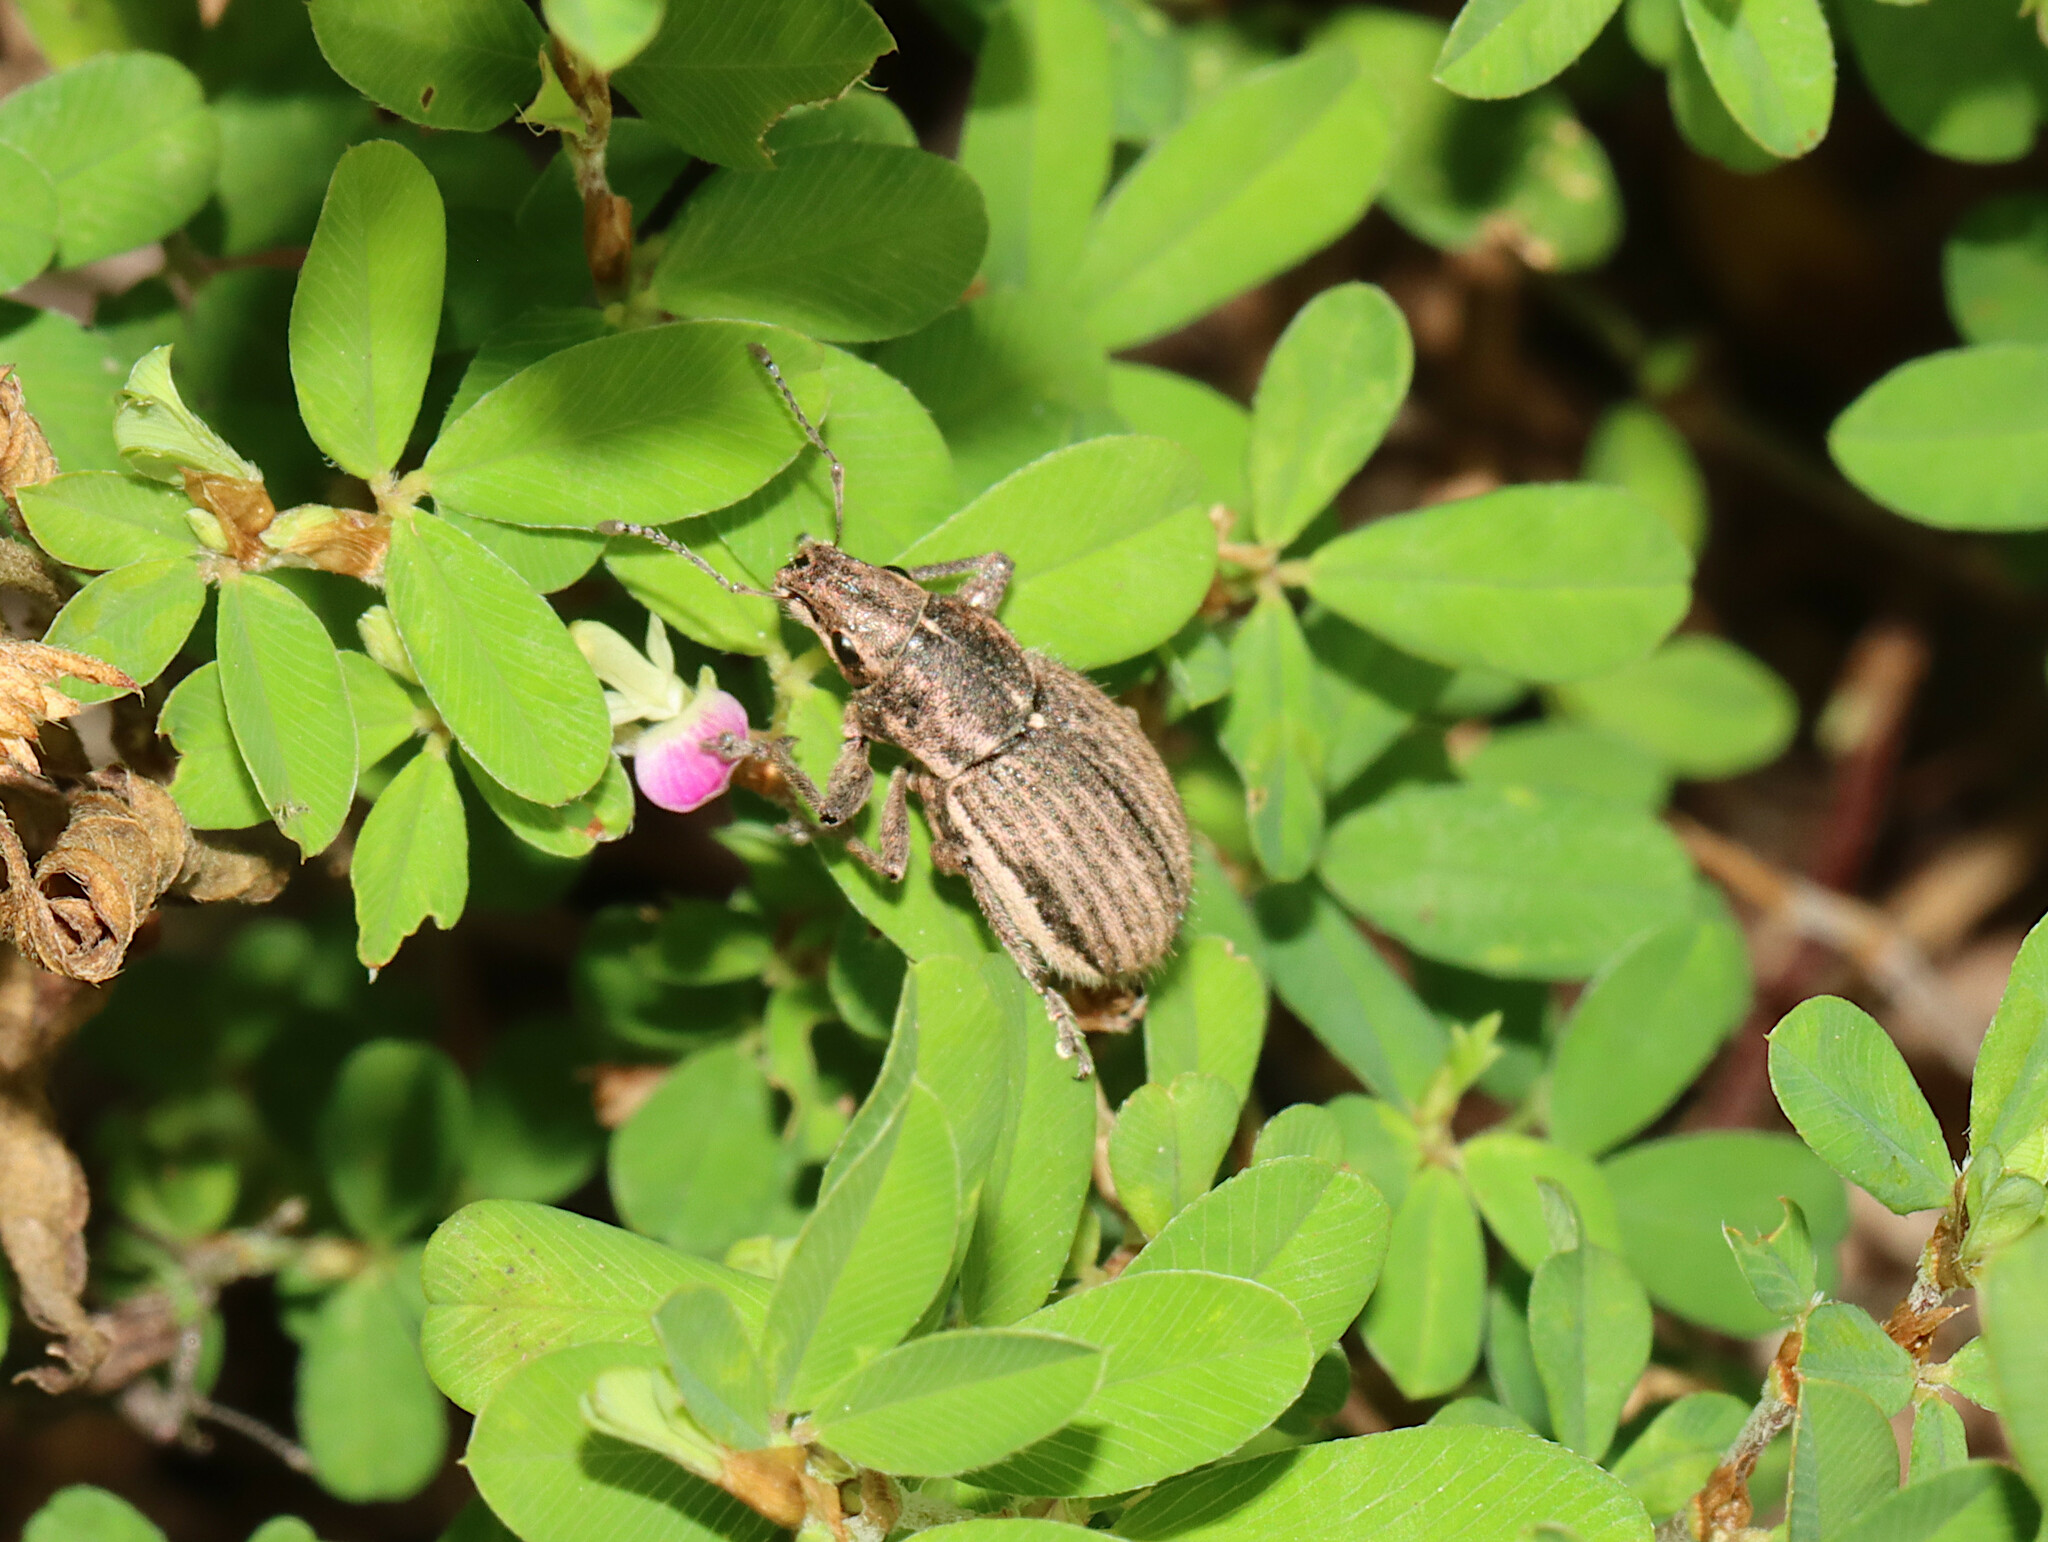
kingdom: Animalia
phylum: Arthropoda
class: Insecta
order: Coleoptera
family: Curculionidae
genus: Naupactus
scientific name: Naupactus leucoloma
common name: Whitefringed beetle
